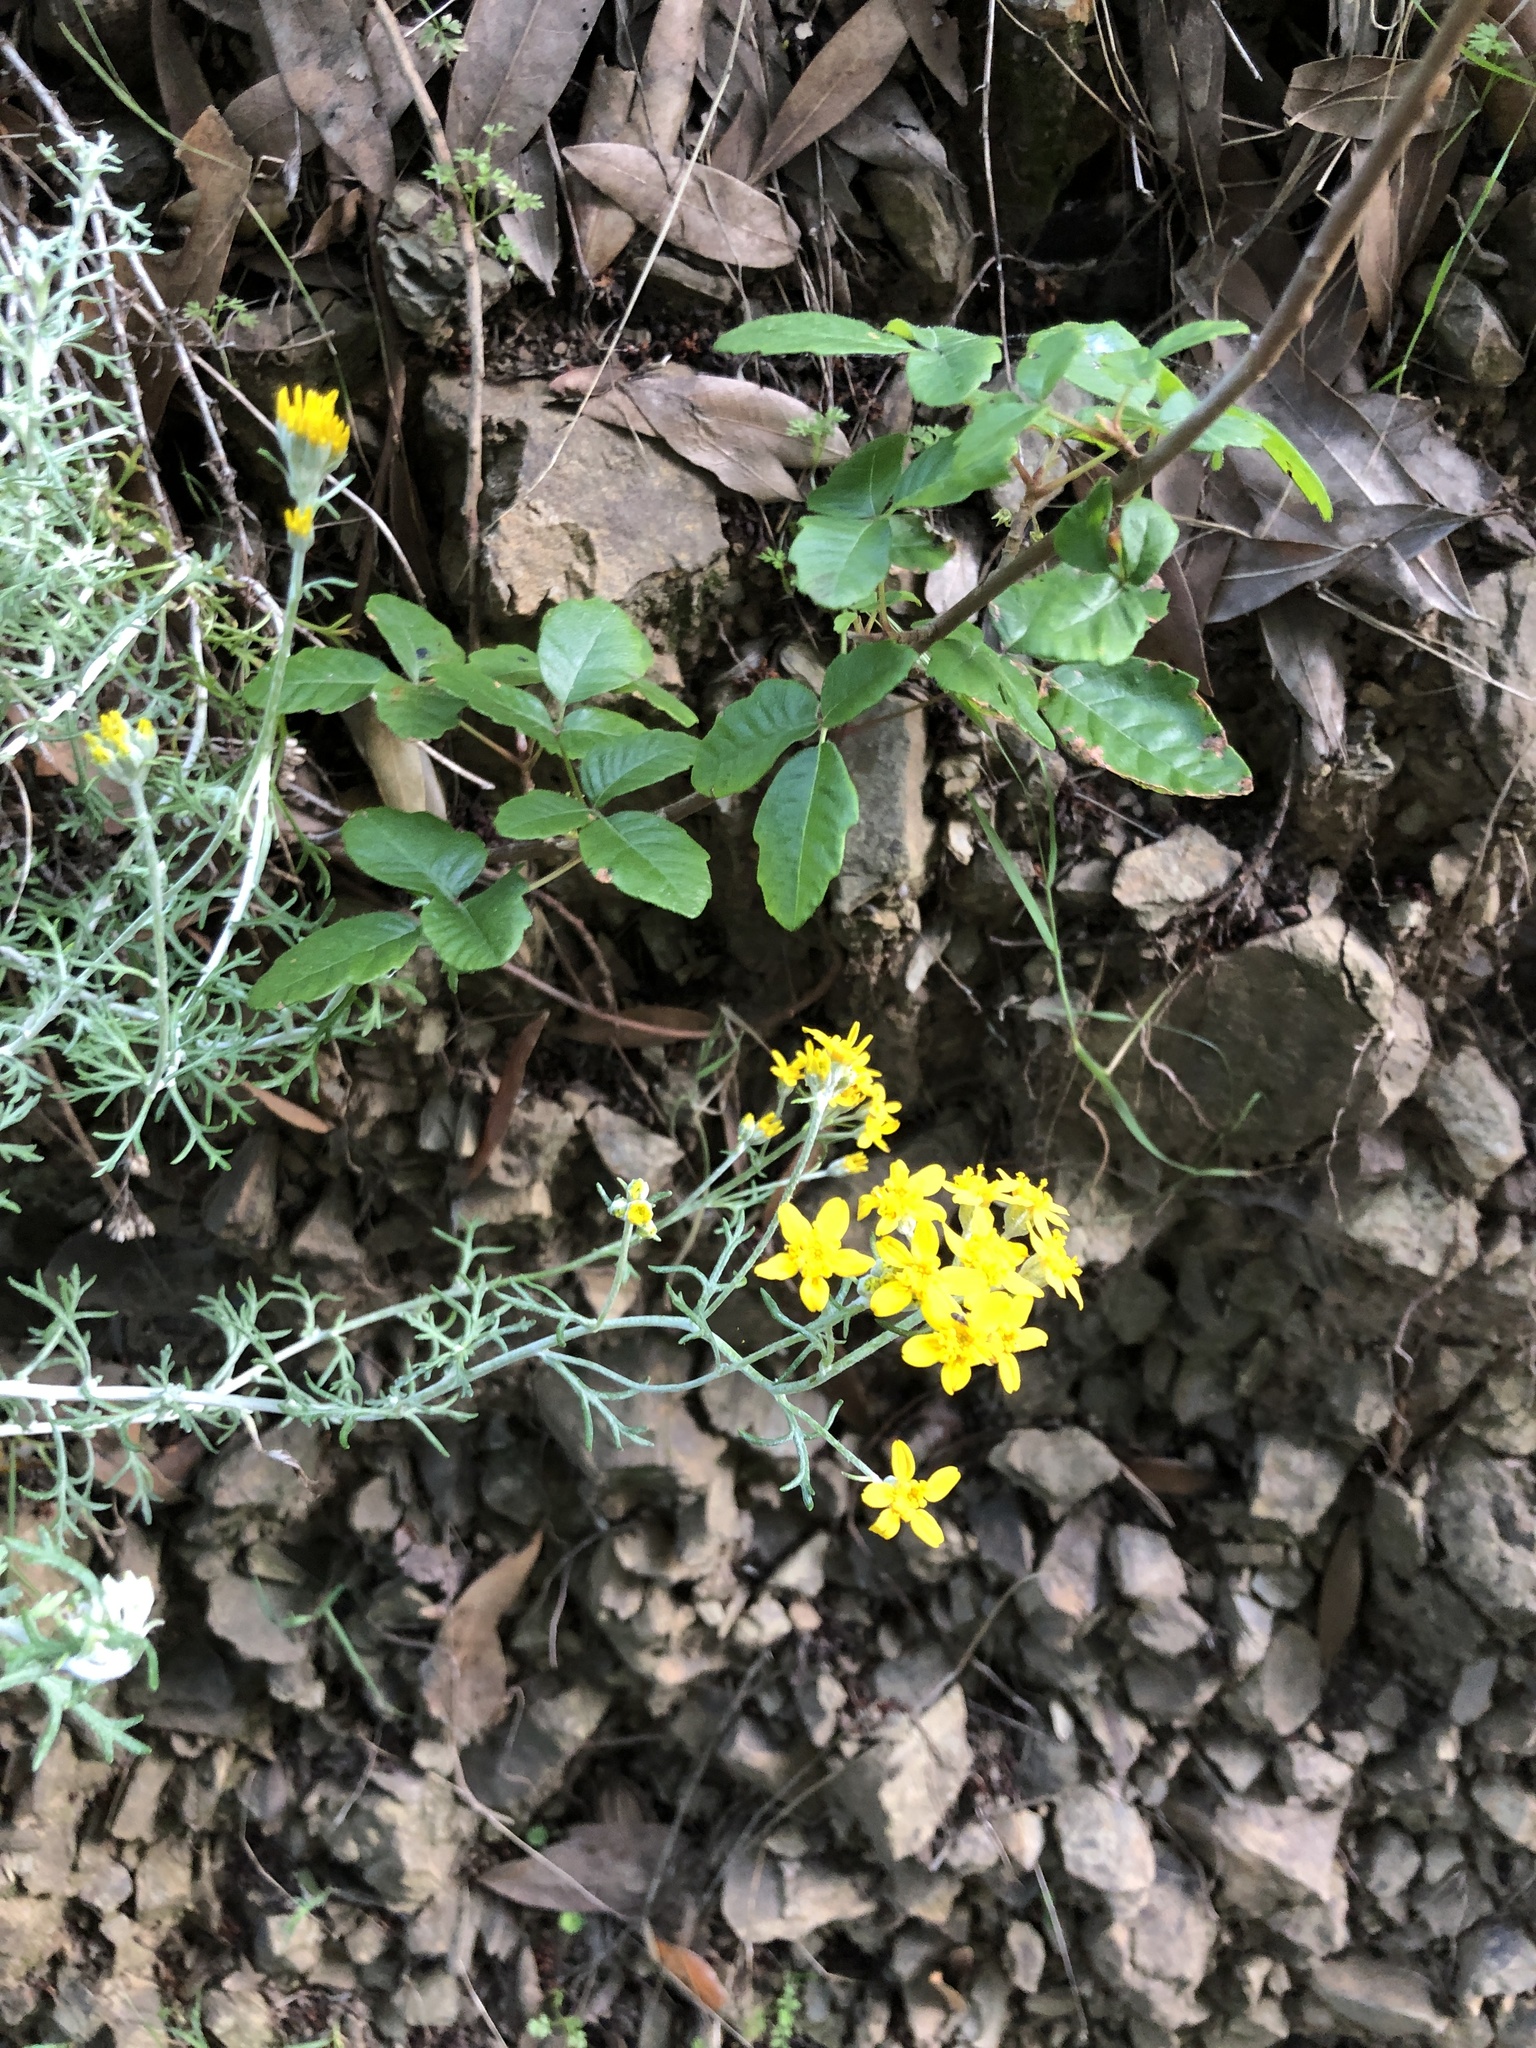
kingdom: Plantae
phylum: Tracheophyta
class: Magnoliopsida
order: Asterales
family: Asteraceae
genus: Eriophyllum
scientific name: Eriophyllum confertiflorum
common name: Golden-yarrow
